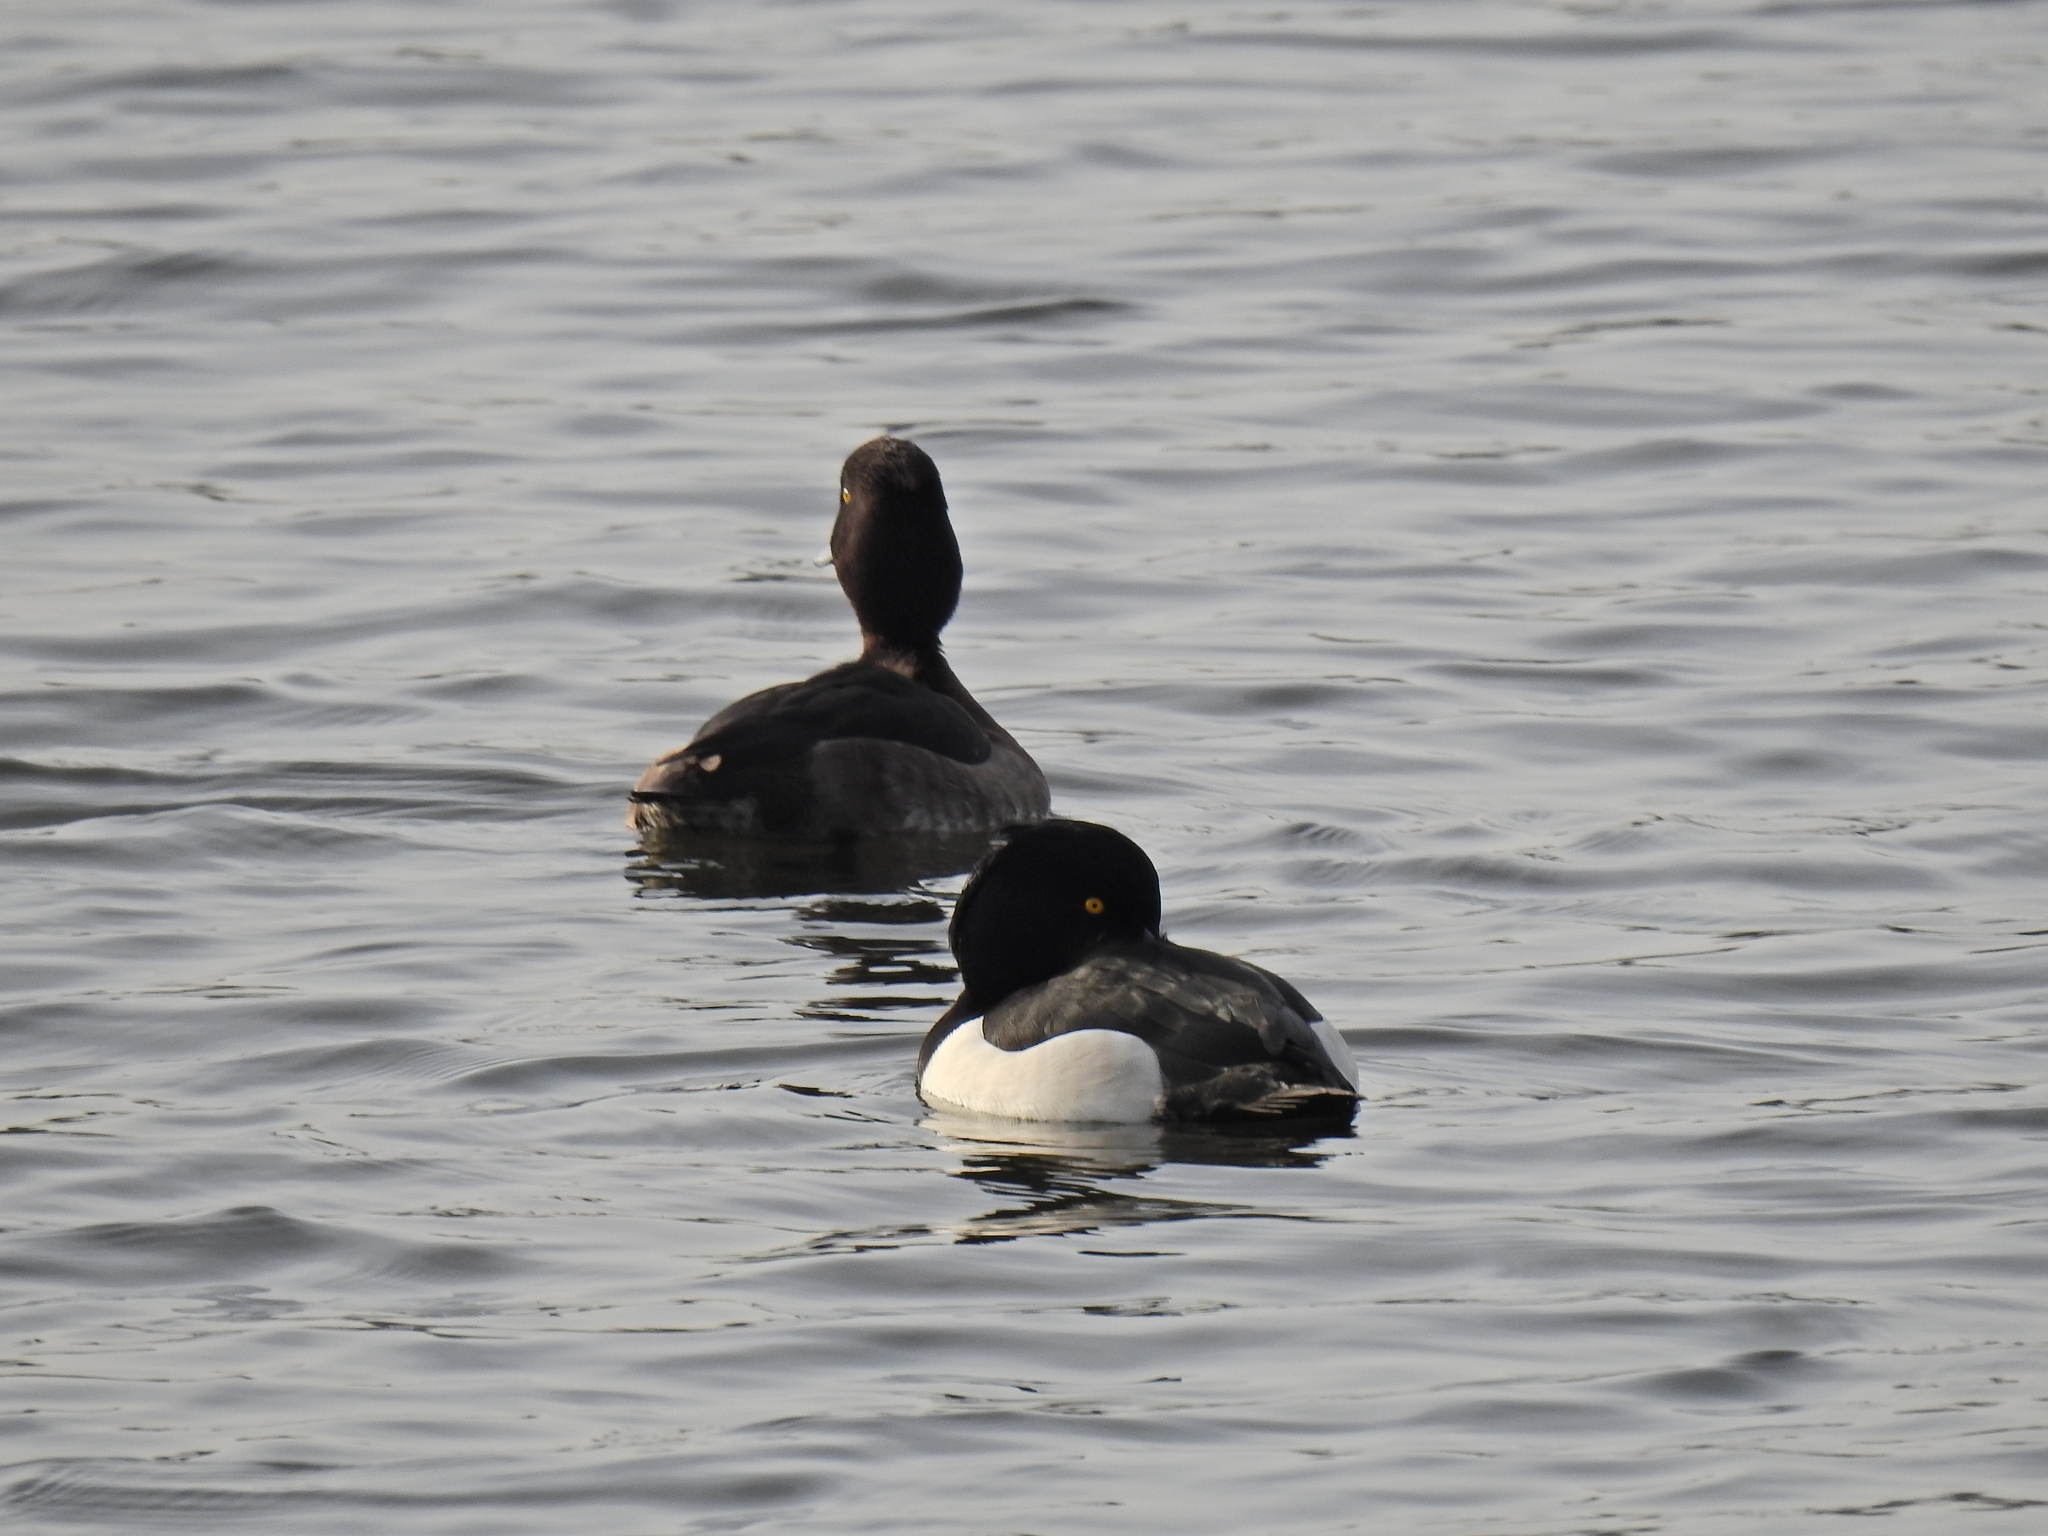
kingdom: Animalia
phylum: Chordata
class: Aves
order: Anseriformes
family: Anatidae
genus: Aythya
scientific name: Aythya fuligula
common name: Tufted duck
